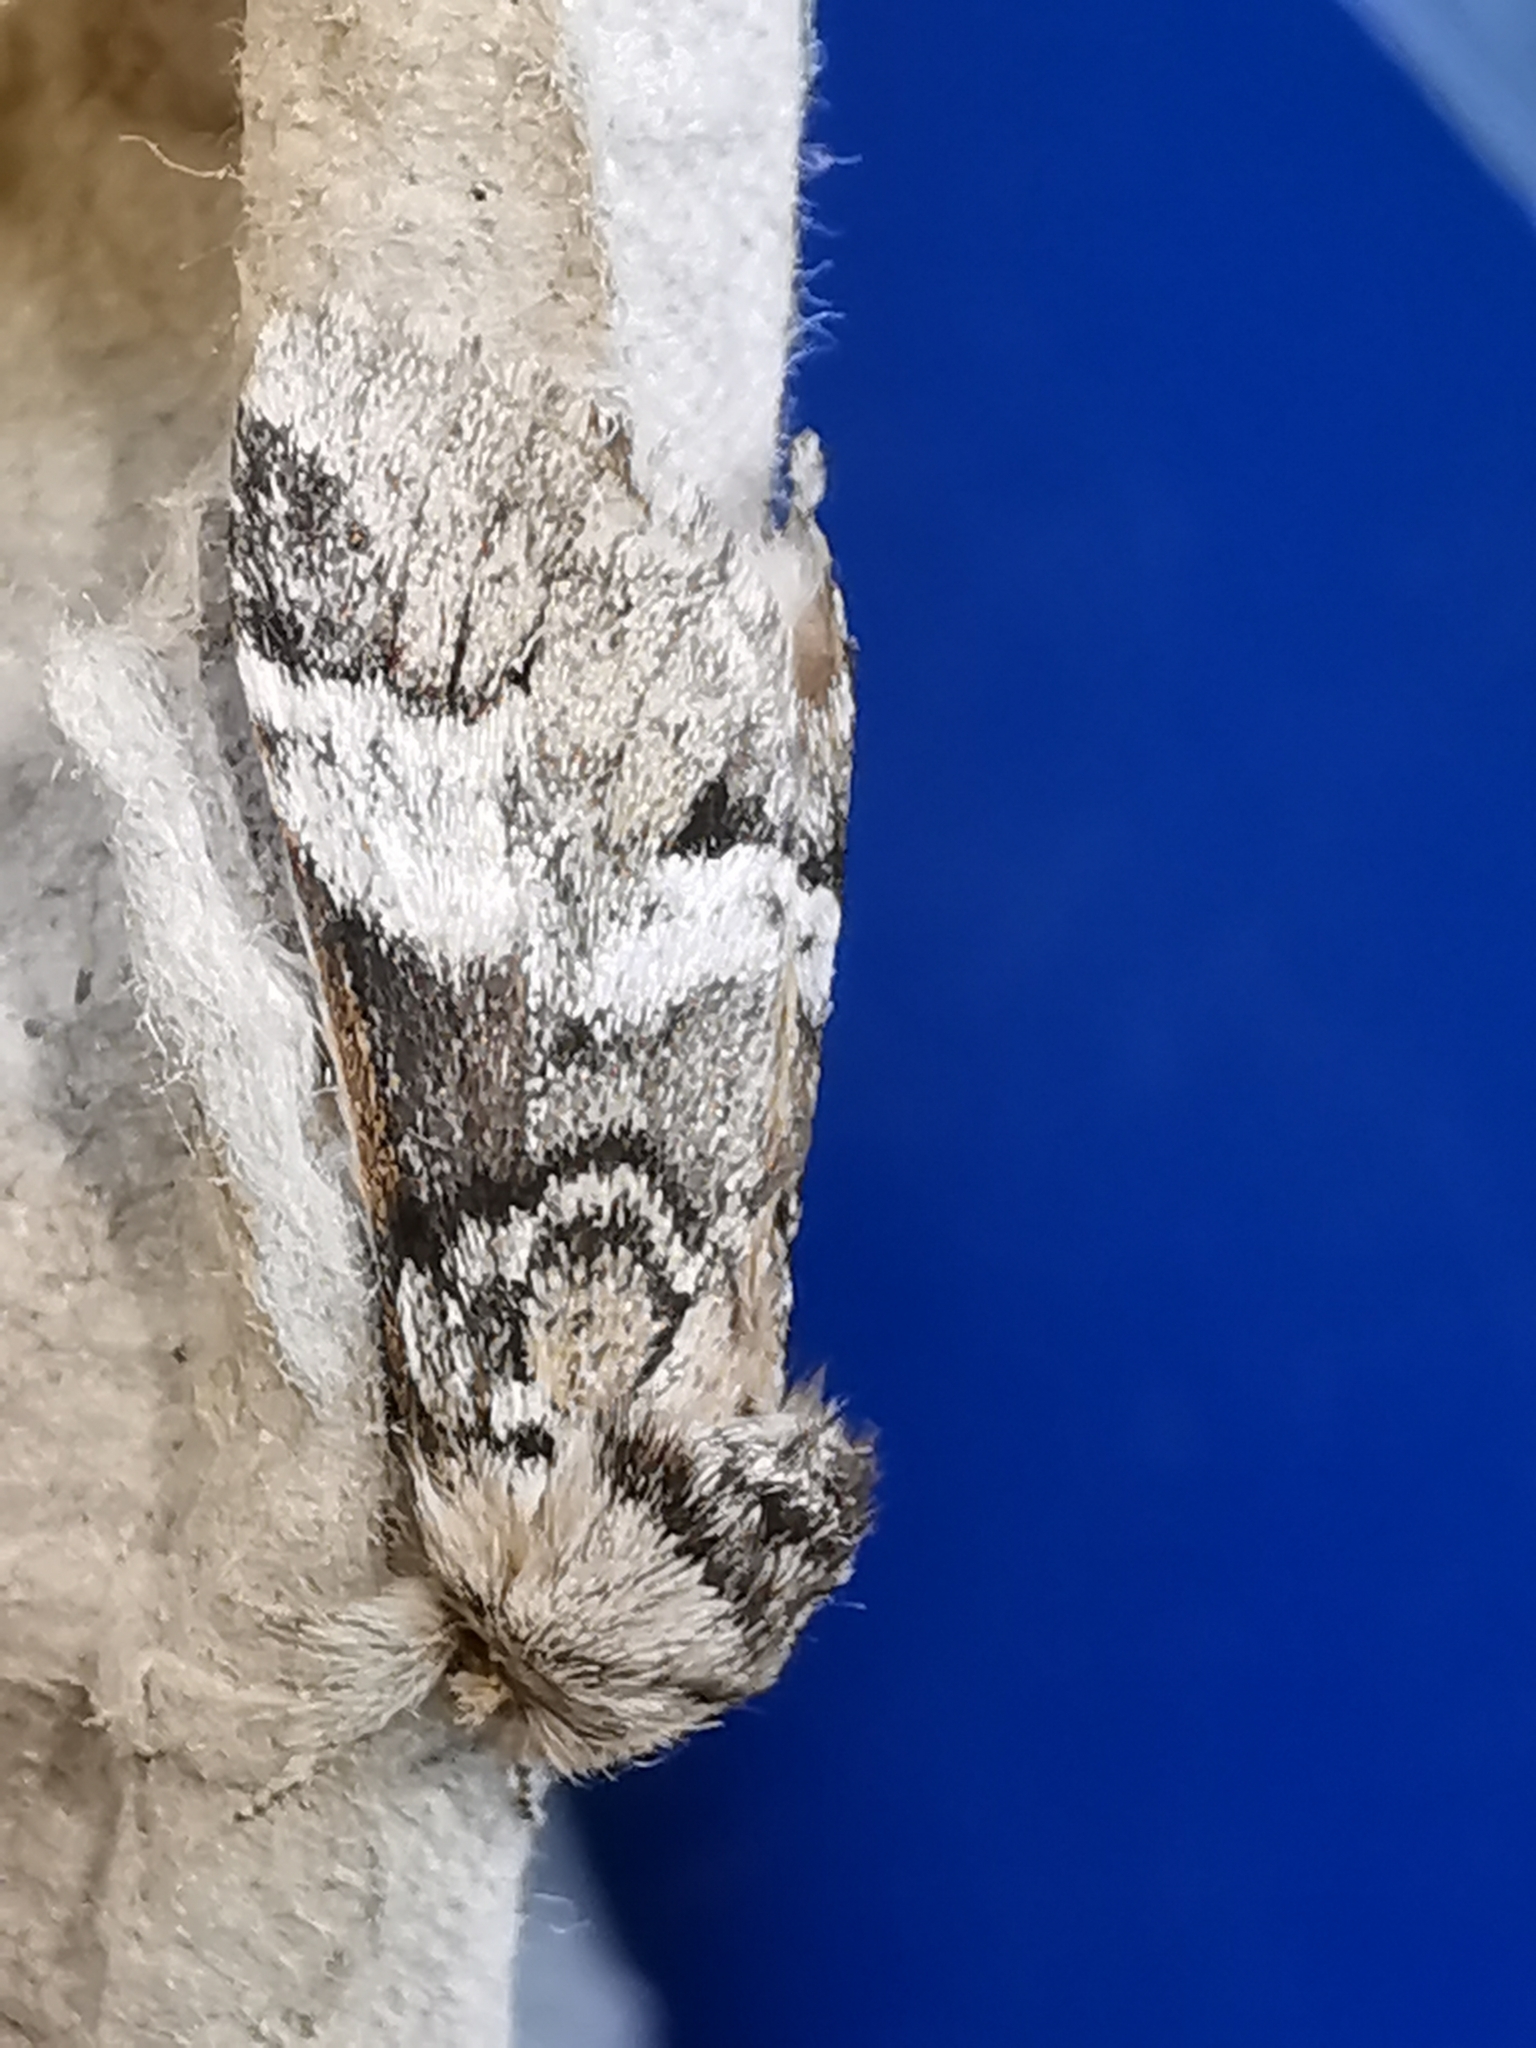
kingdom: Animalia
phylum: Arthropoda
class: Insecta
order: Lepidoptera
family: Notodontidae
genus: Drymonia
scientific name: Drymonia dodonaea
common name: Marbled brown
